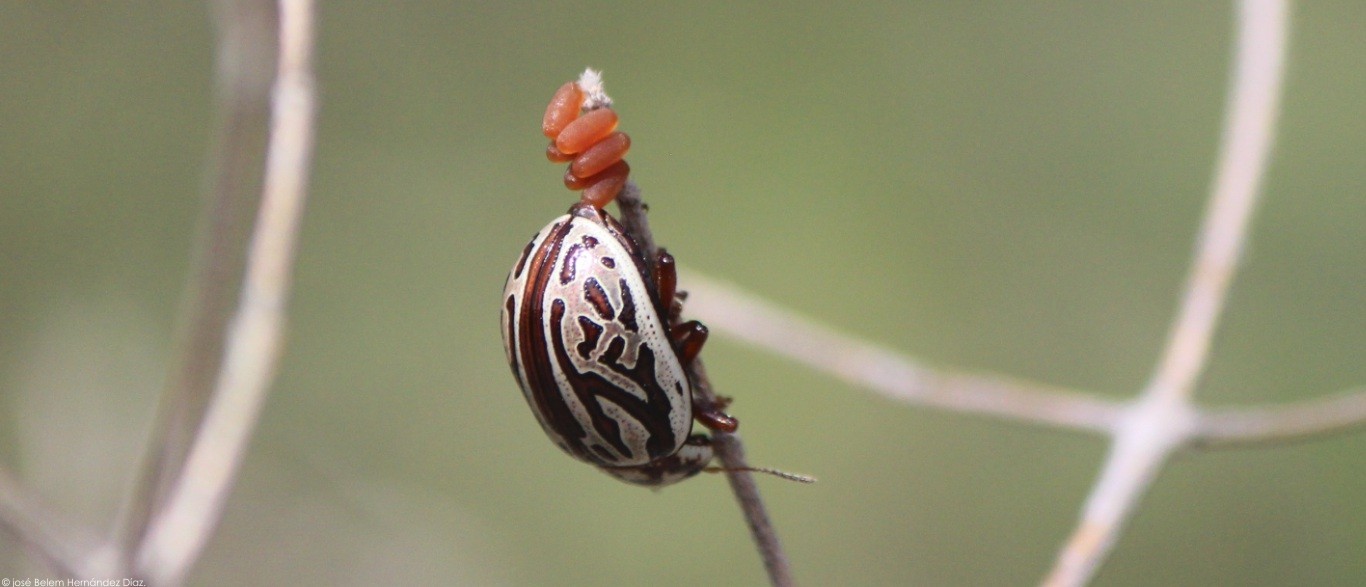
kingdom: Animalia
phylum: Arthropoda
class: Insecta
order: Coleoptera
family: Chrysomelidae
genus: Calligrapha
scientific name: Calligrapha gyllenhali
